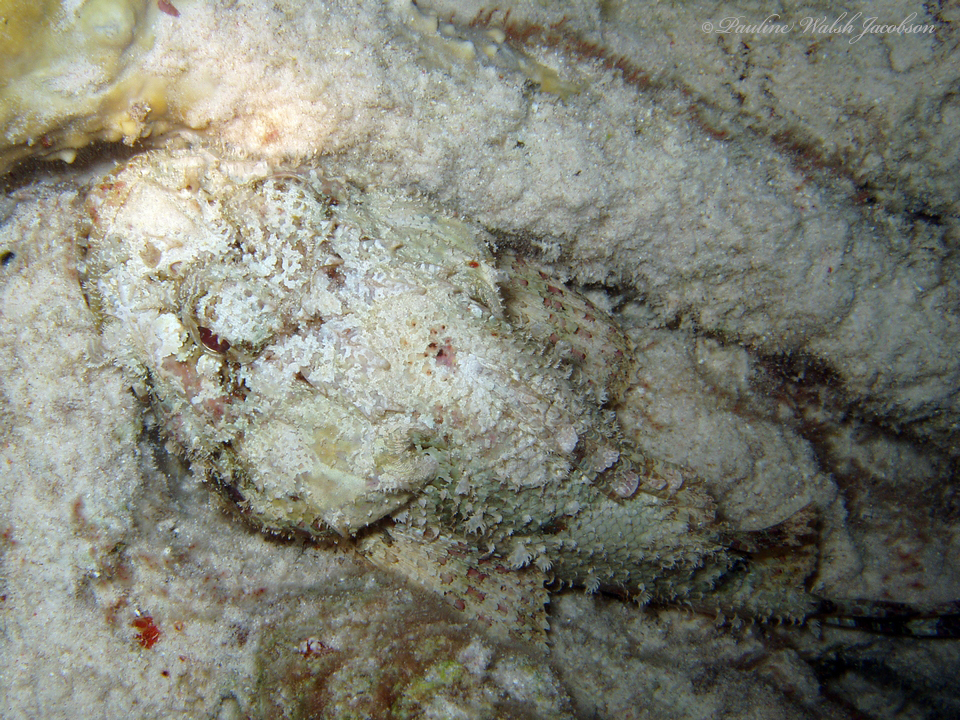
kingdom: Animalia
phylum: Chordata
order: Scorpaeniformes
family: Scorpaenidae
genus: Scorpaena
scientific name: Scorpaena plumieri
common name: Spotted scorpionfish
